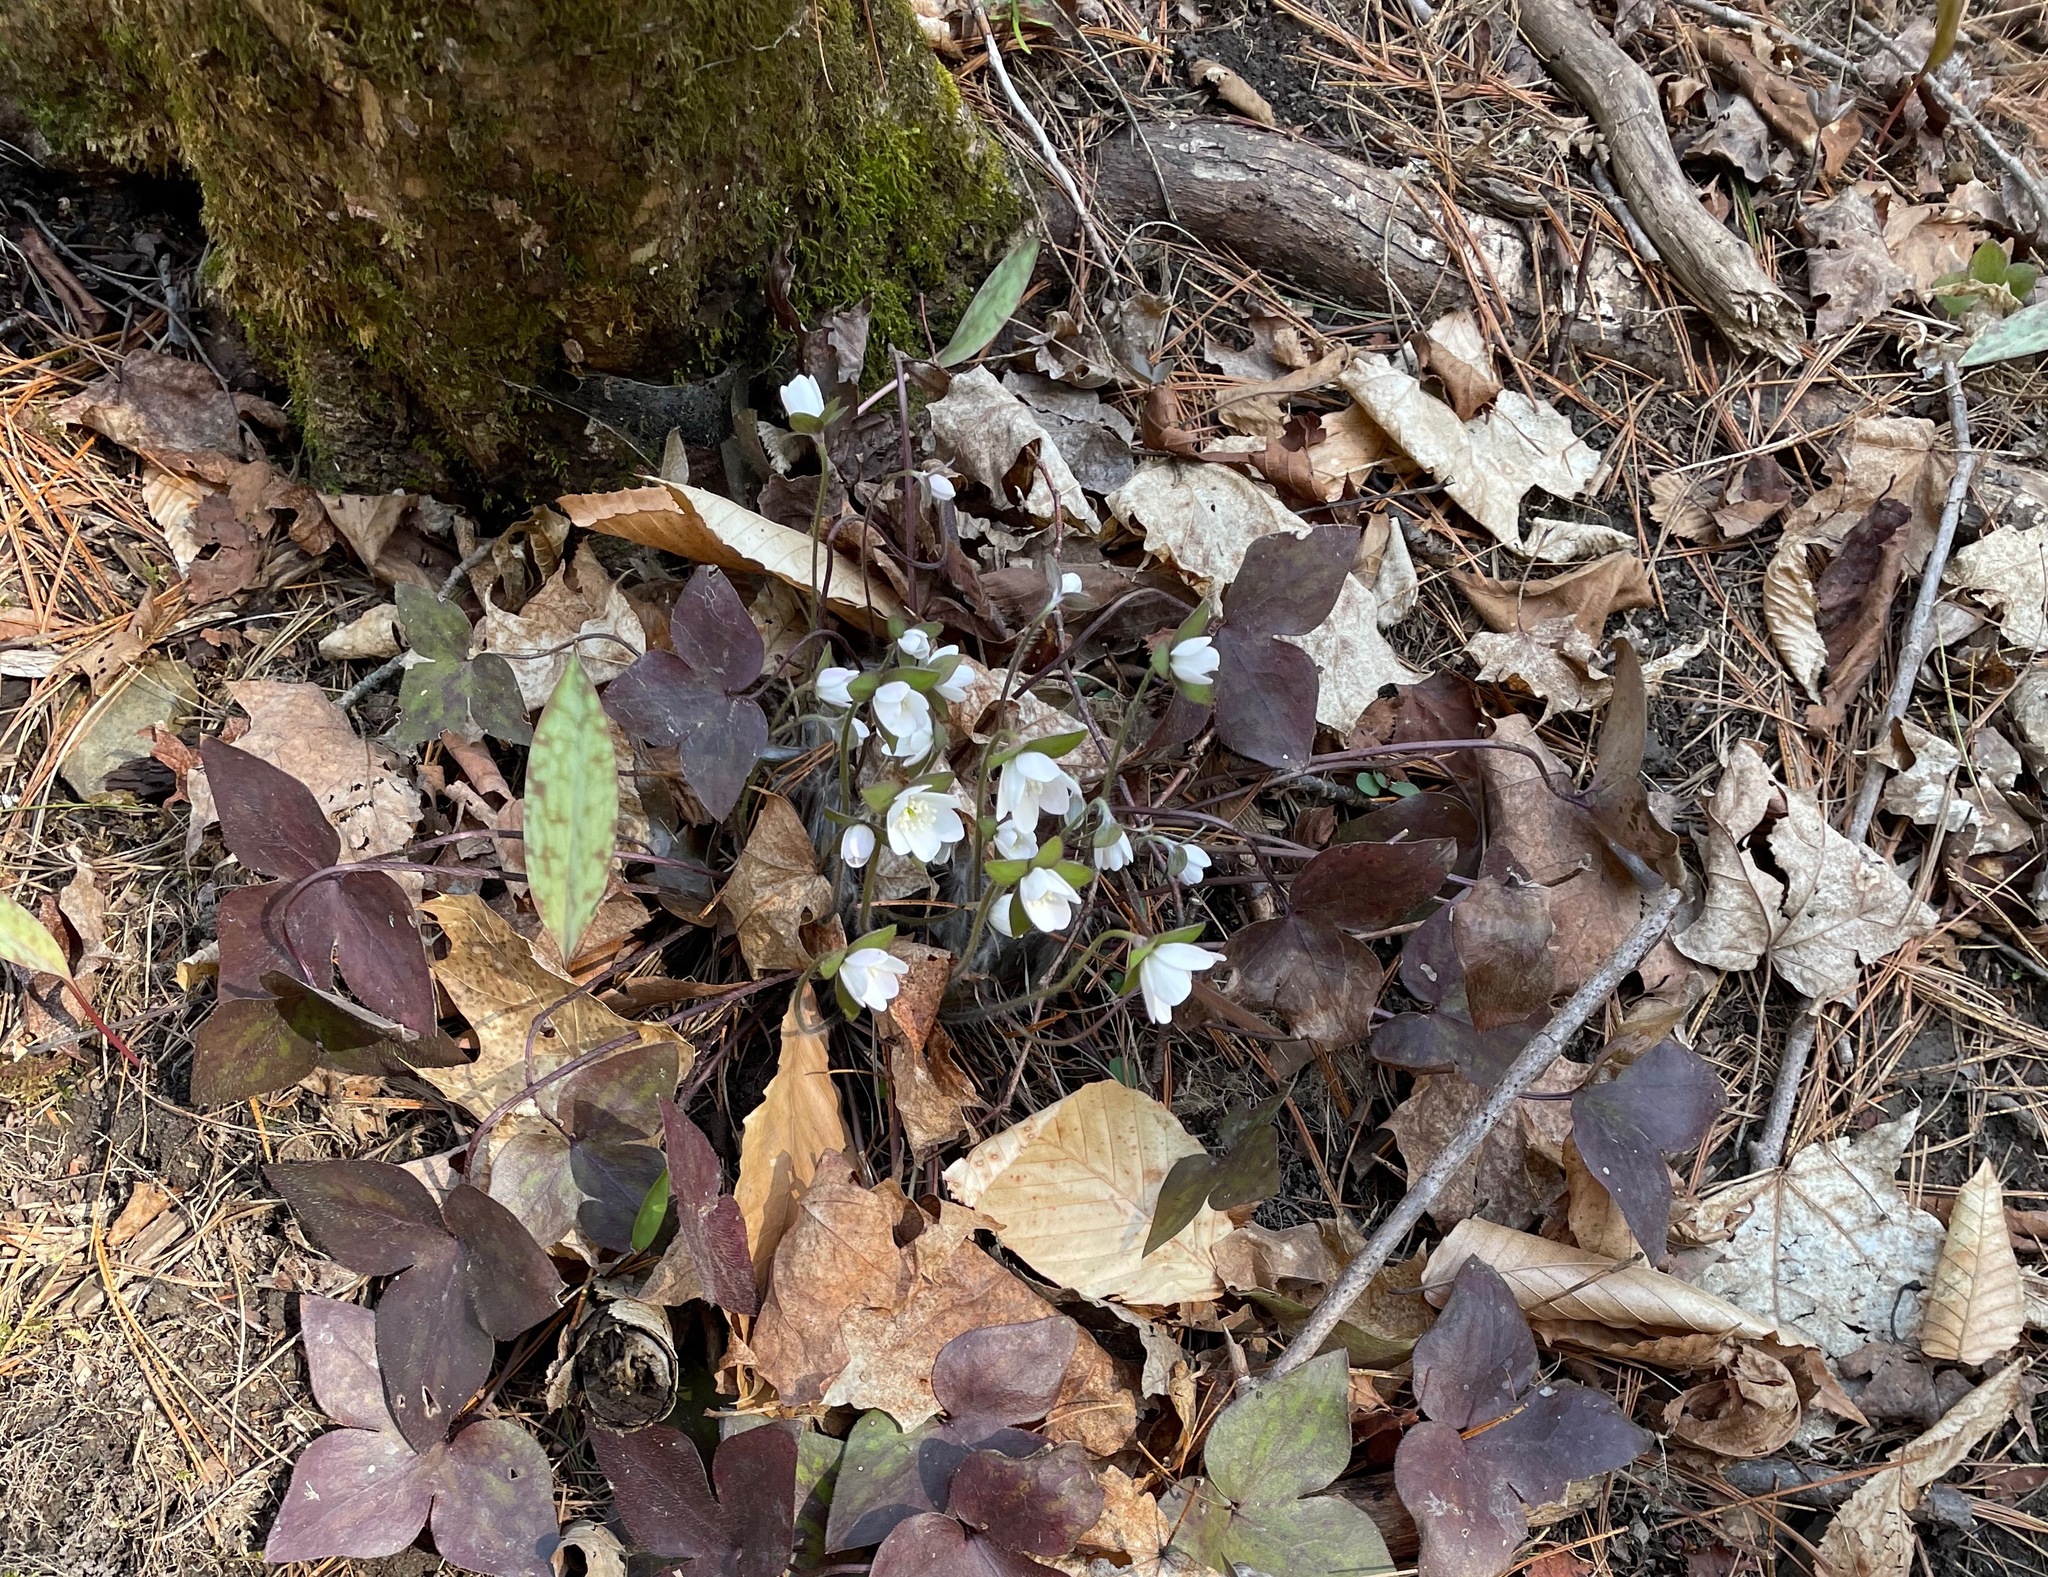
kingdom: Plantae
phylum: Tracheophyta
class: Magnoliopsida
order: Ranunculales
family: Ranunculaceae
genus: Hepatica
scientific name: Hepatica acutiloba
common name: Sharp-lobed hepatica
